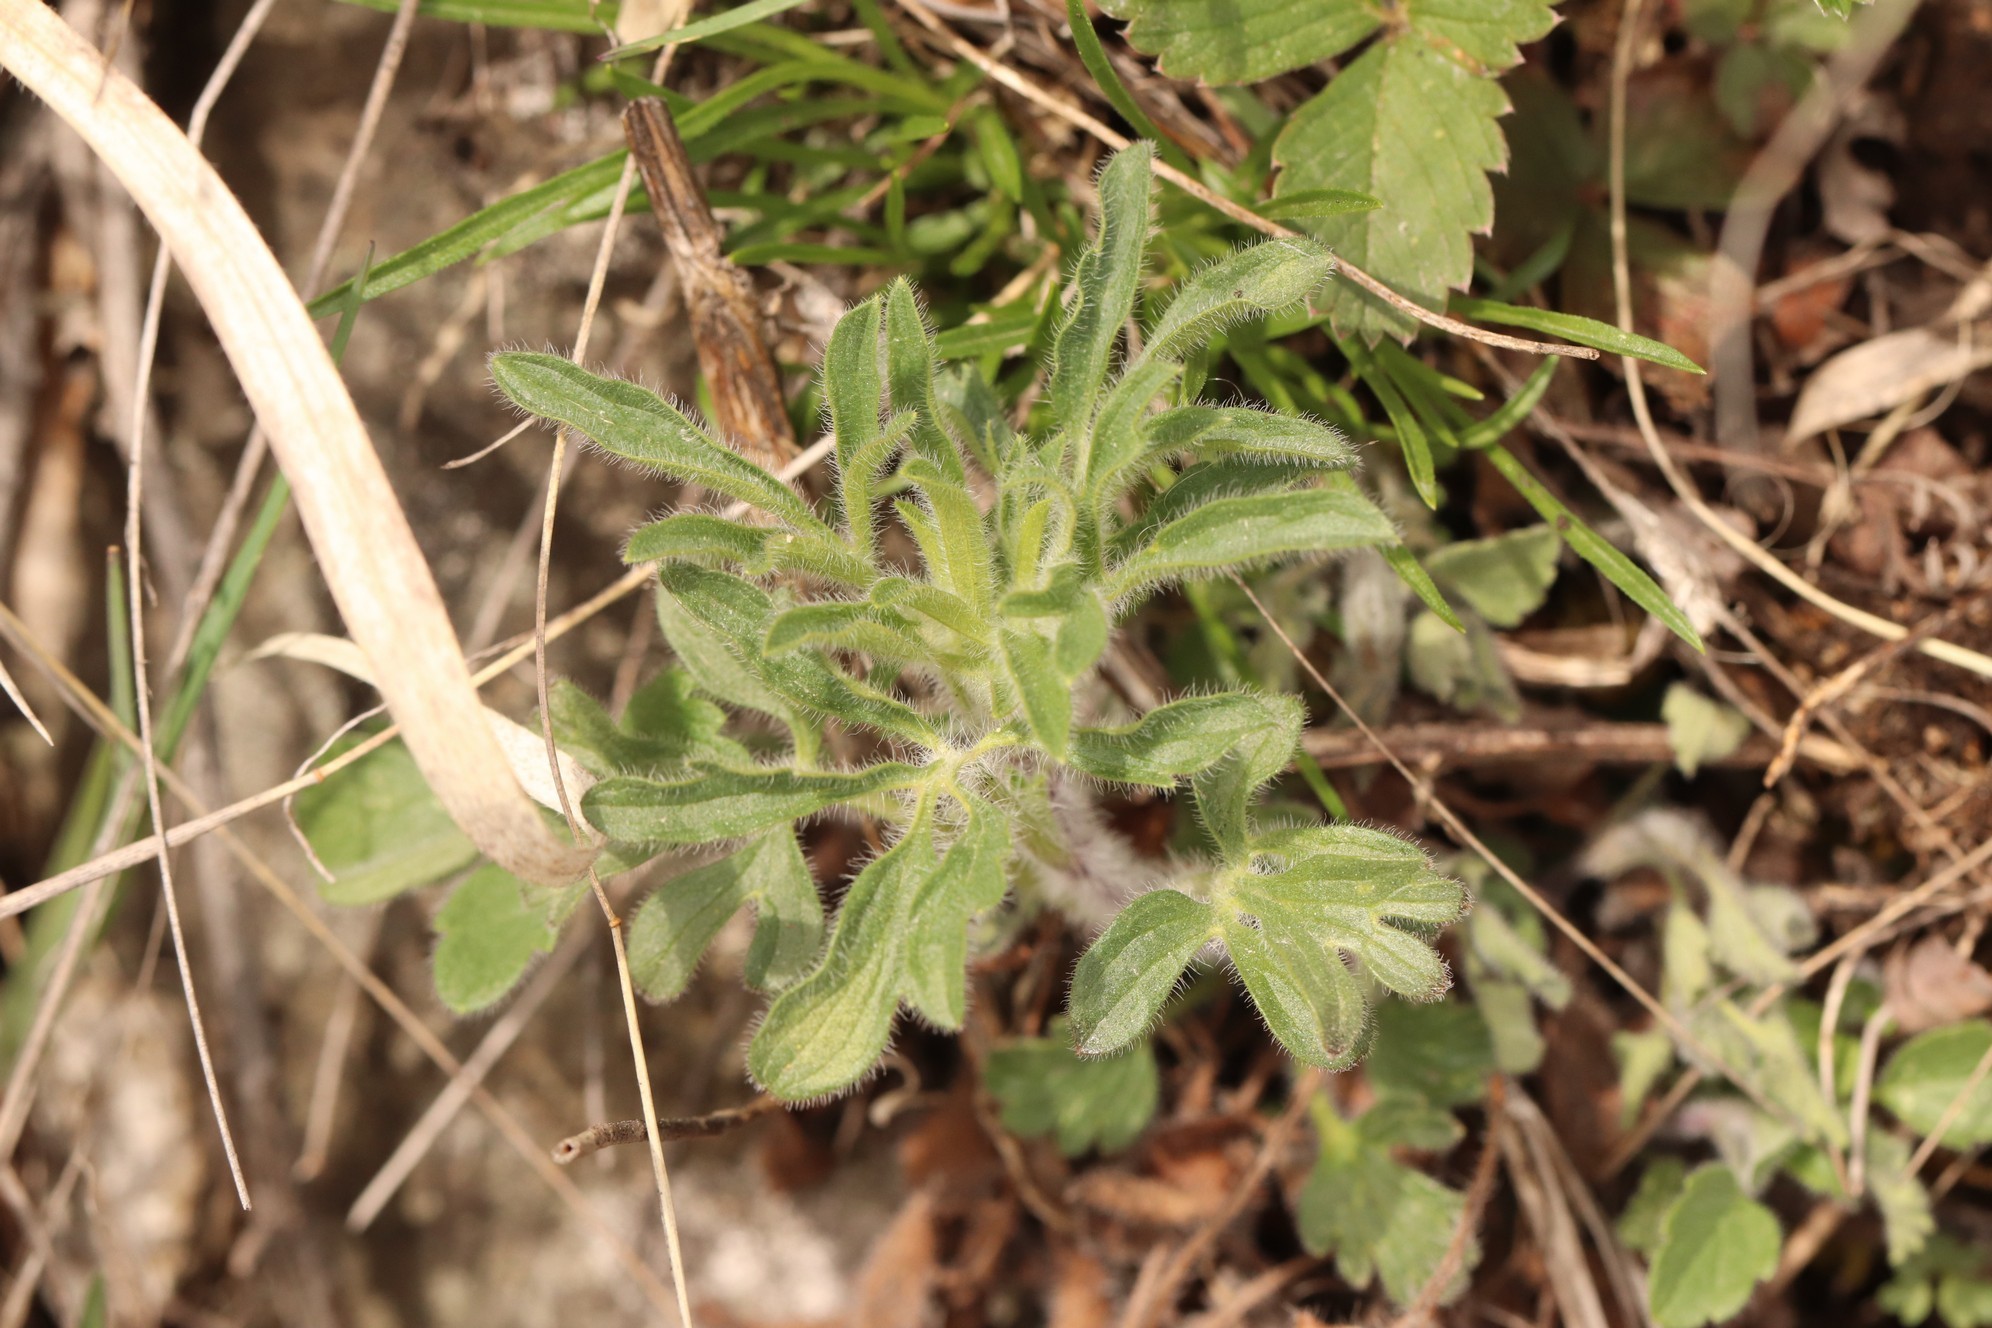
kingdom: Plantae
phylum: Tracheophyta
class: Magnoliopsida
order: Lamiales
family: Lamiaceae
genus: Nepeta
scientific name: Nepeta multifida
